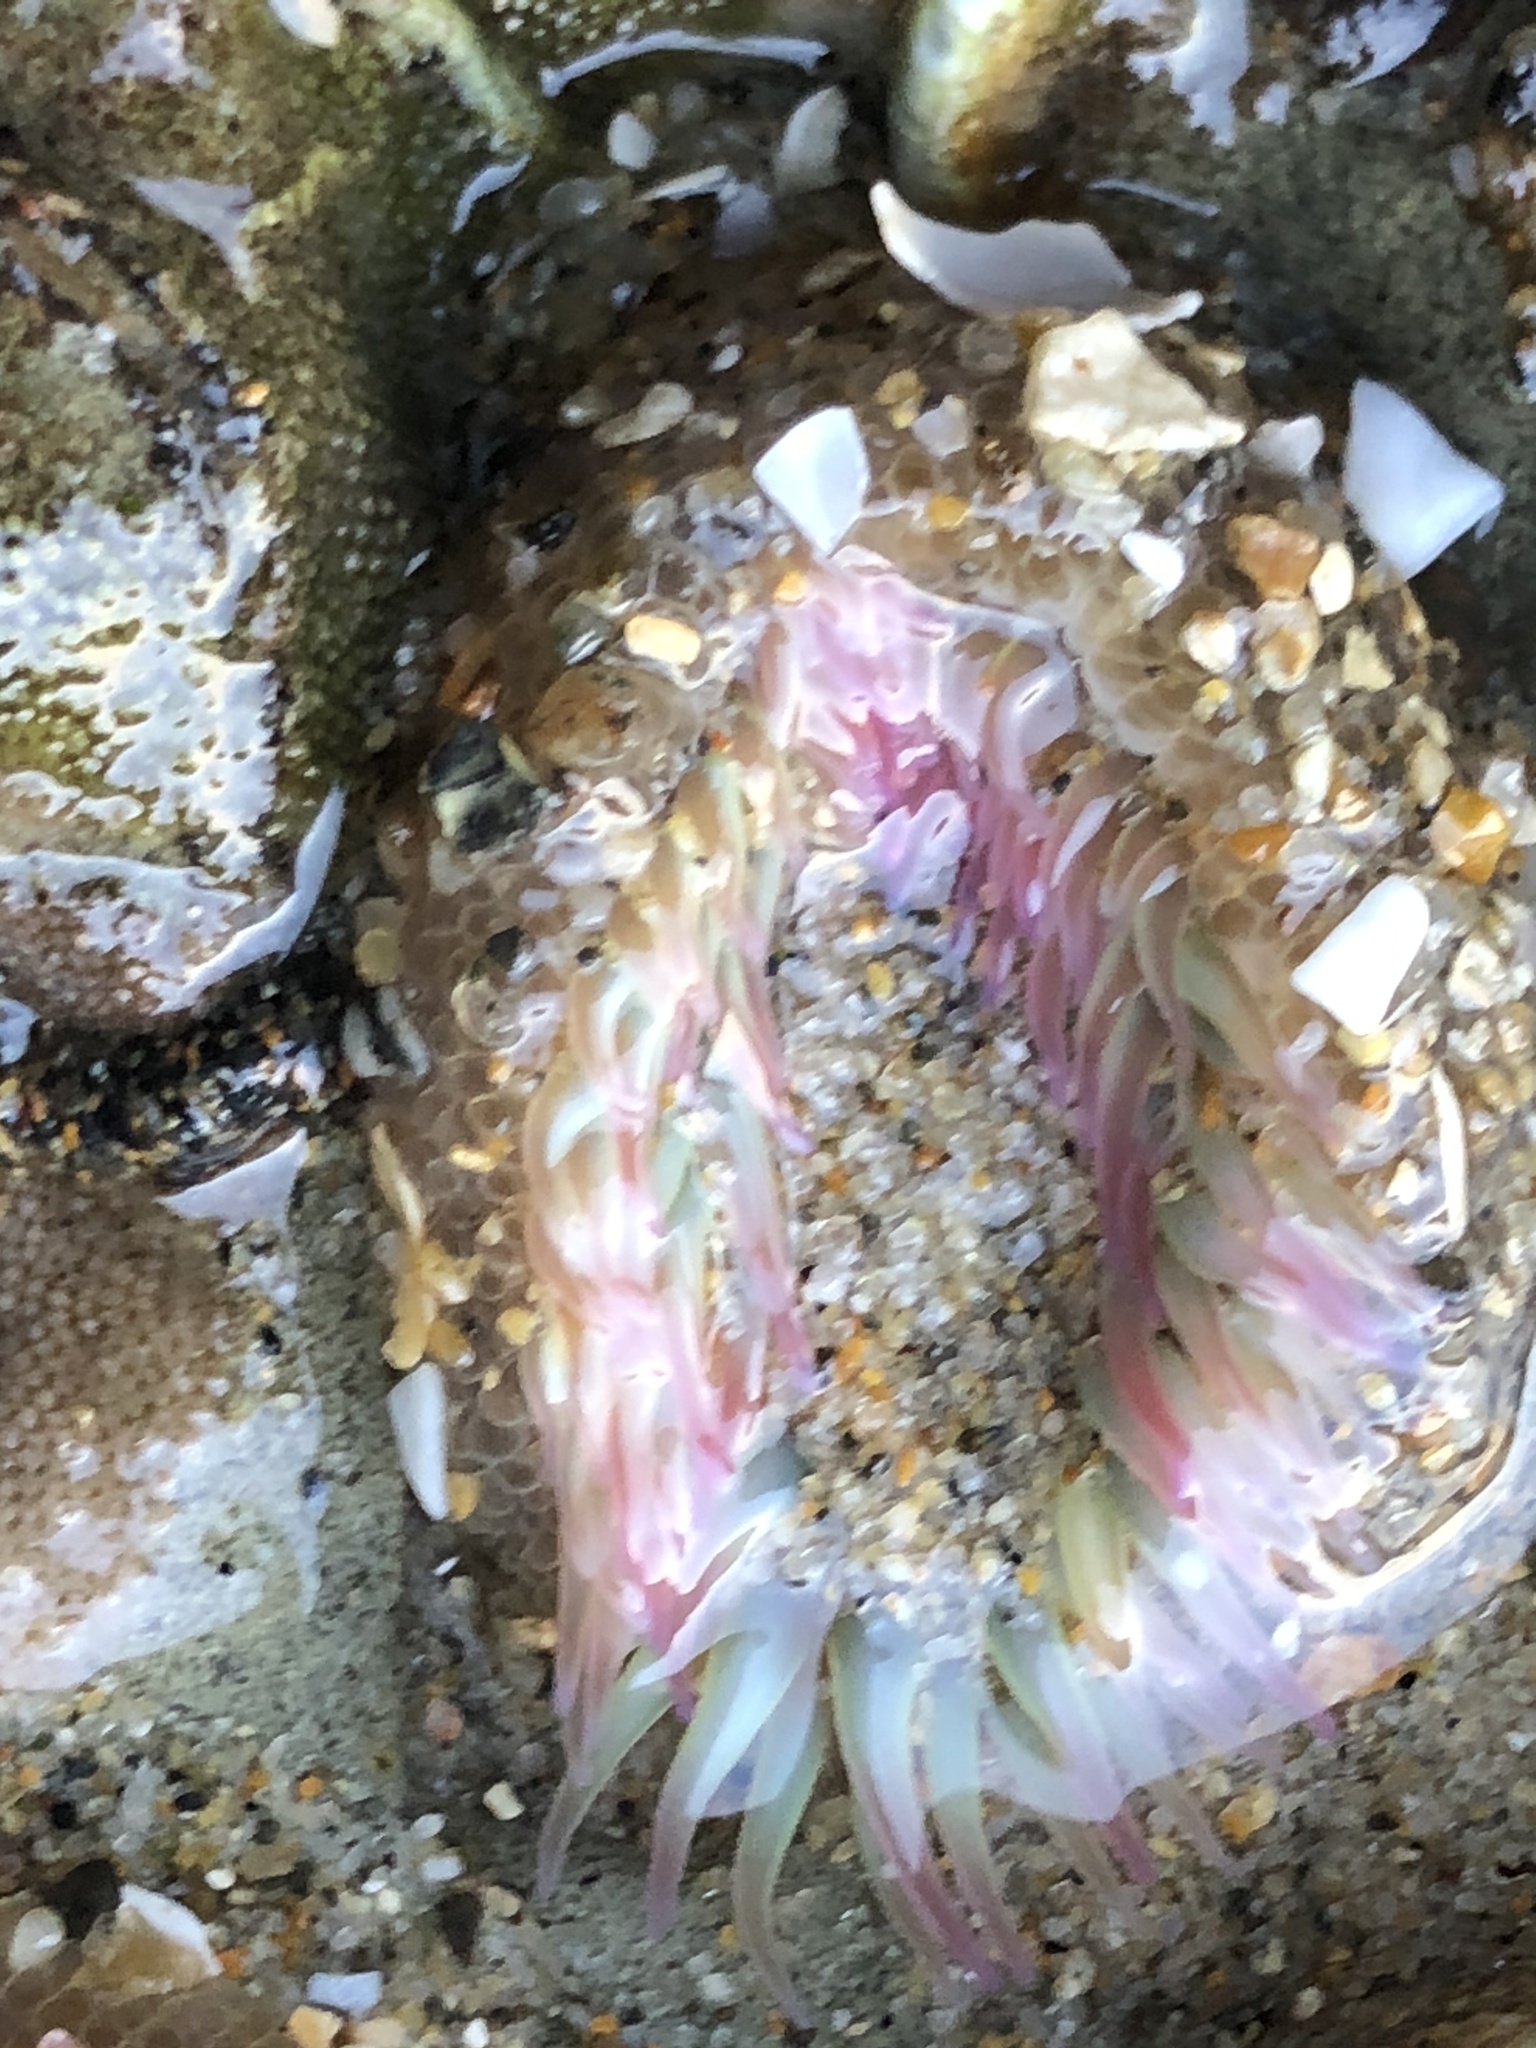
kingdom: Animalia
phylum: Cnidaria
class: Anthozoa
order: Actiniaria
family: Actiniidae
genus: Anthopleura
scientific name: Anthopleura elegantissima
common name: Clonal anemone
